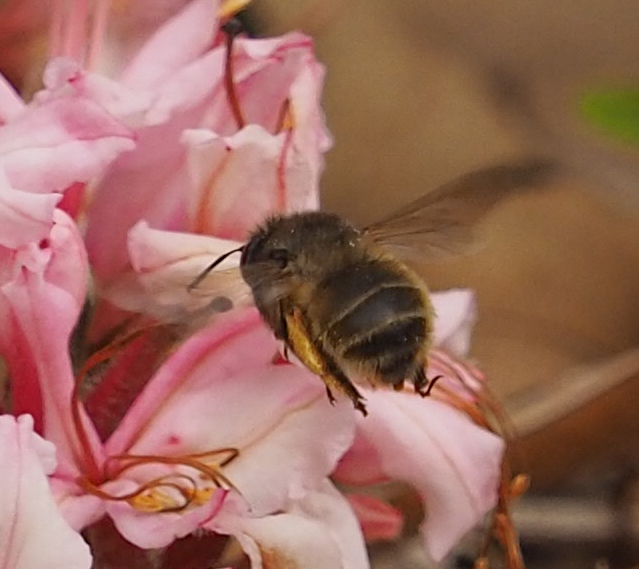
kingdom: Animalia
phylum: Arthropoda
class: Insecta
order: Hymenoptera
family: Apidae
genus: Anthophora
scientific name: Anthophora villosula
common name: Asian shaggy digger
